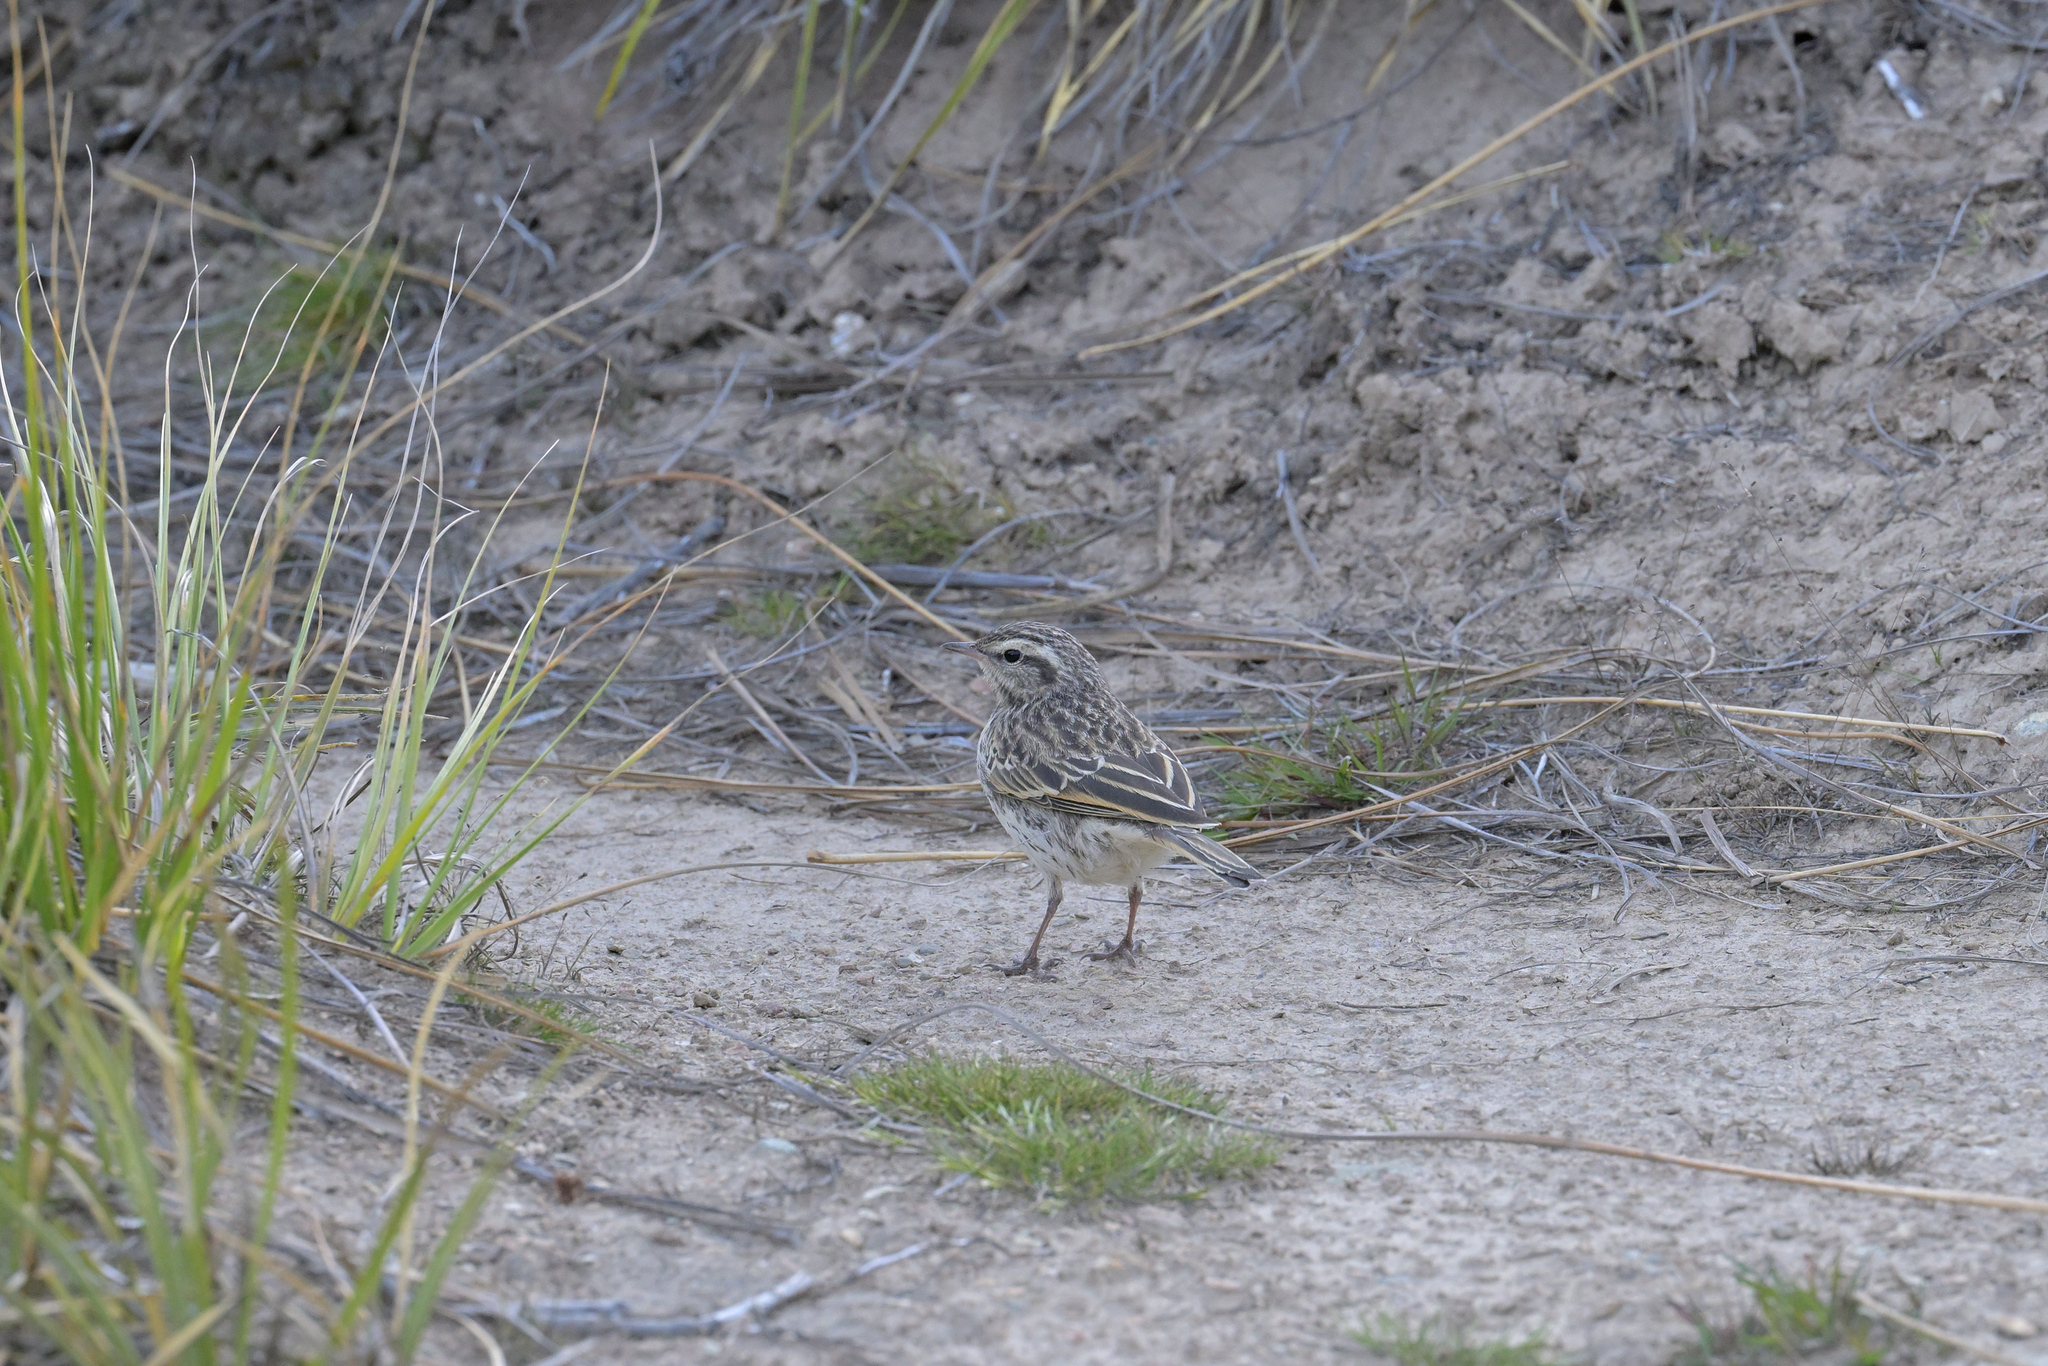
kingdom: Animalia
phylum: Chordata
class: Aves
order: Passeriformes
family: Motacillidae
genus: Anthus
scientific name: Anthus novaeseelandiae
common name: New zealand pipit
